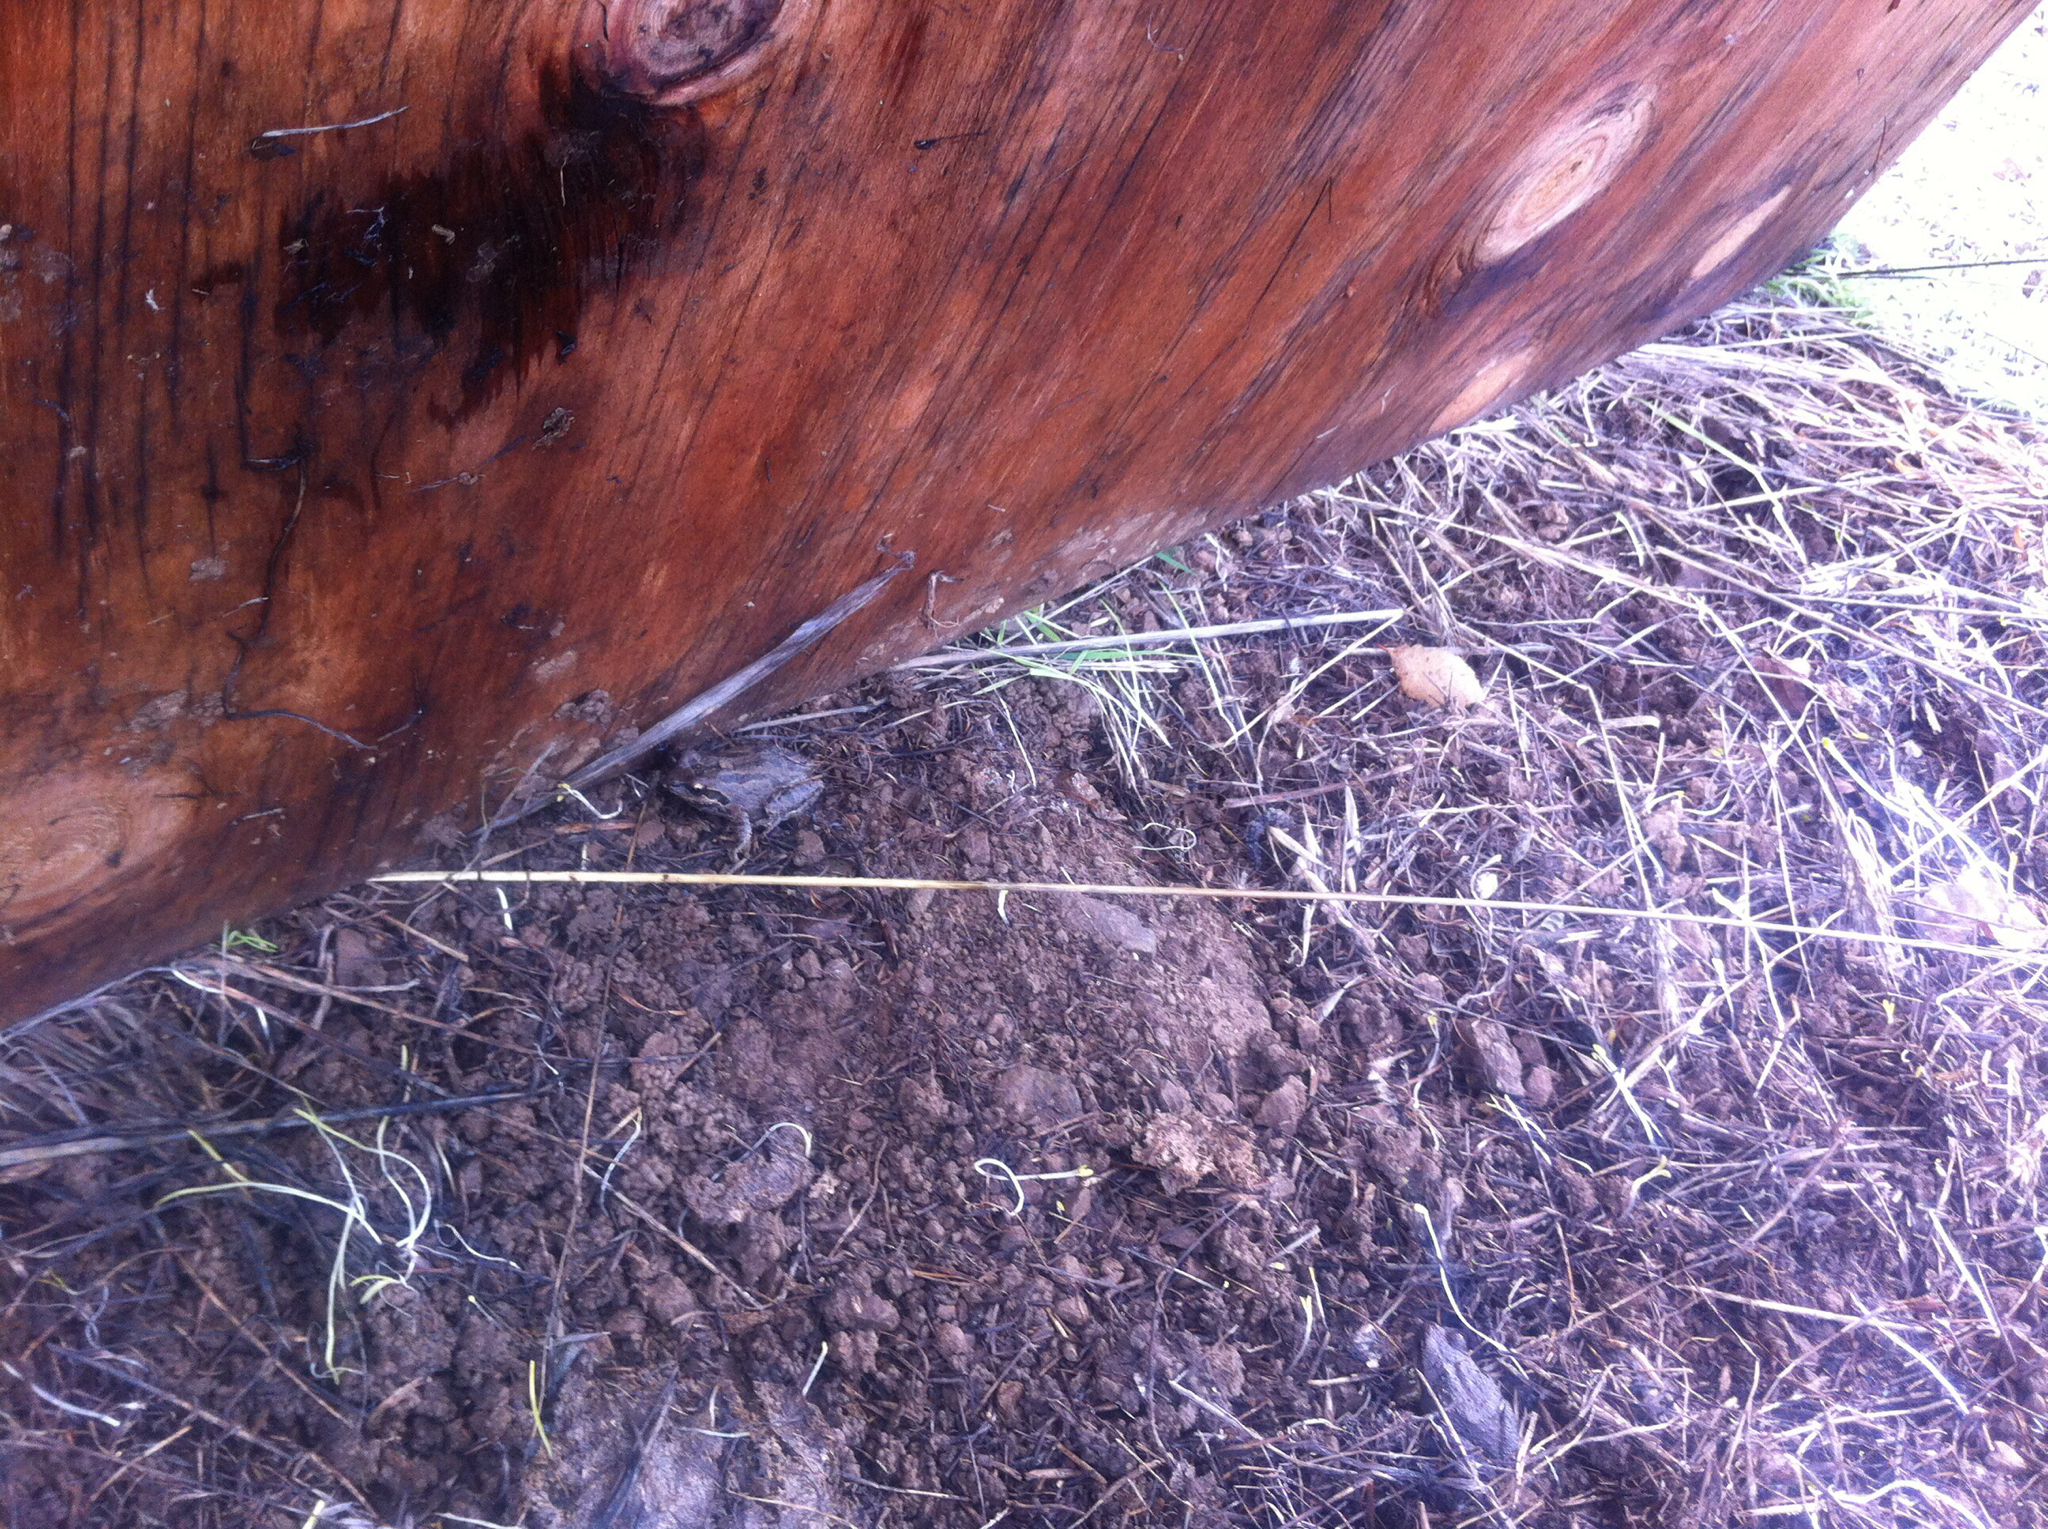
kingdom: Animalia
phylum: Chordata
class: Amphibia
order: Anura
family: Hylidae
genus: Pseudacris
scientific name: Pseudacris regilla
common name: Pacific chorus frog
